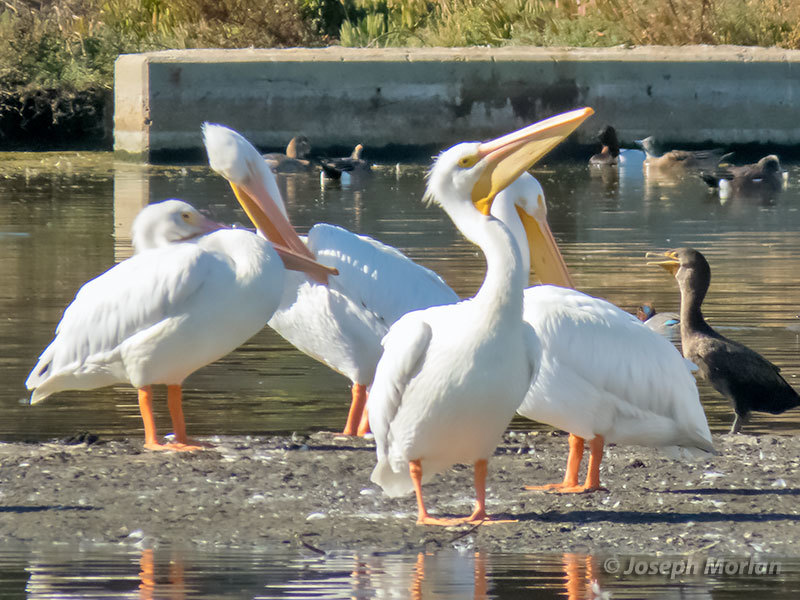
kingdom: Animalia
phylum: Chordata
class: Aves
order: Pelecaniformes
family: Pelecanidae
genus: Pelecanus
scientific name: Pelecanus erythrorhynchos
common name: American white pelican
